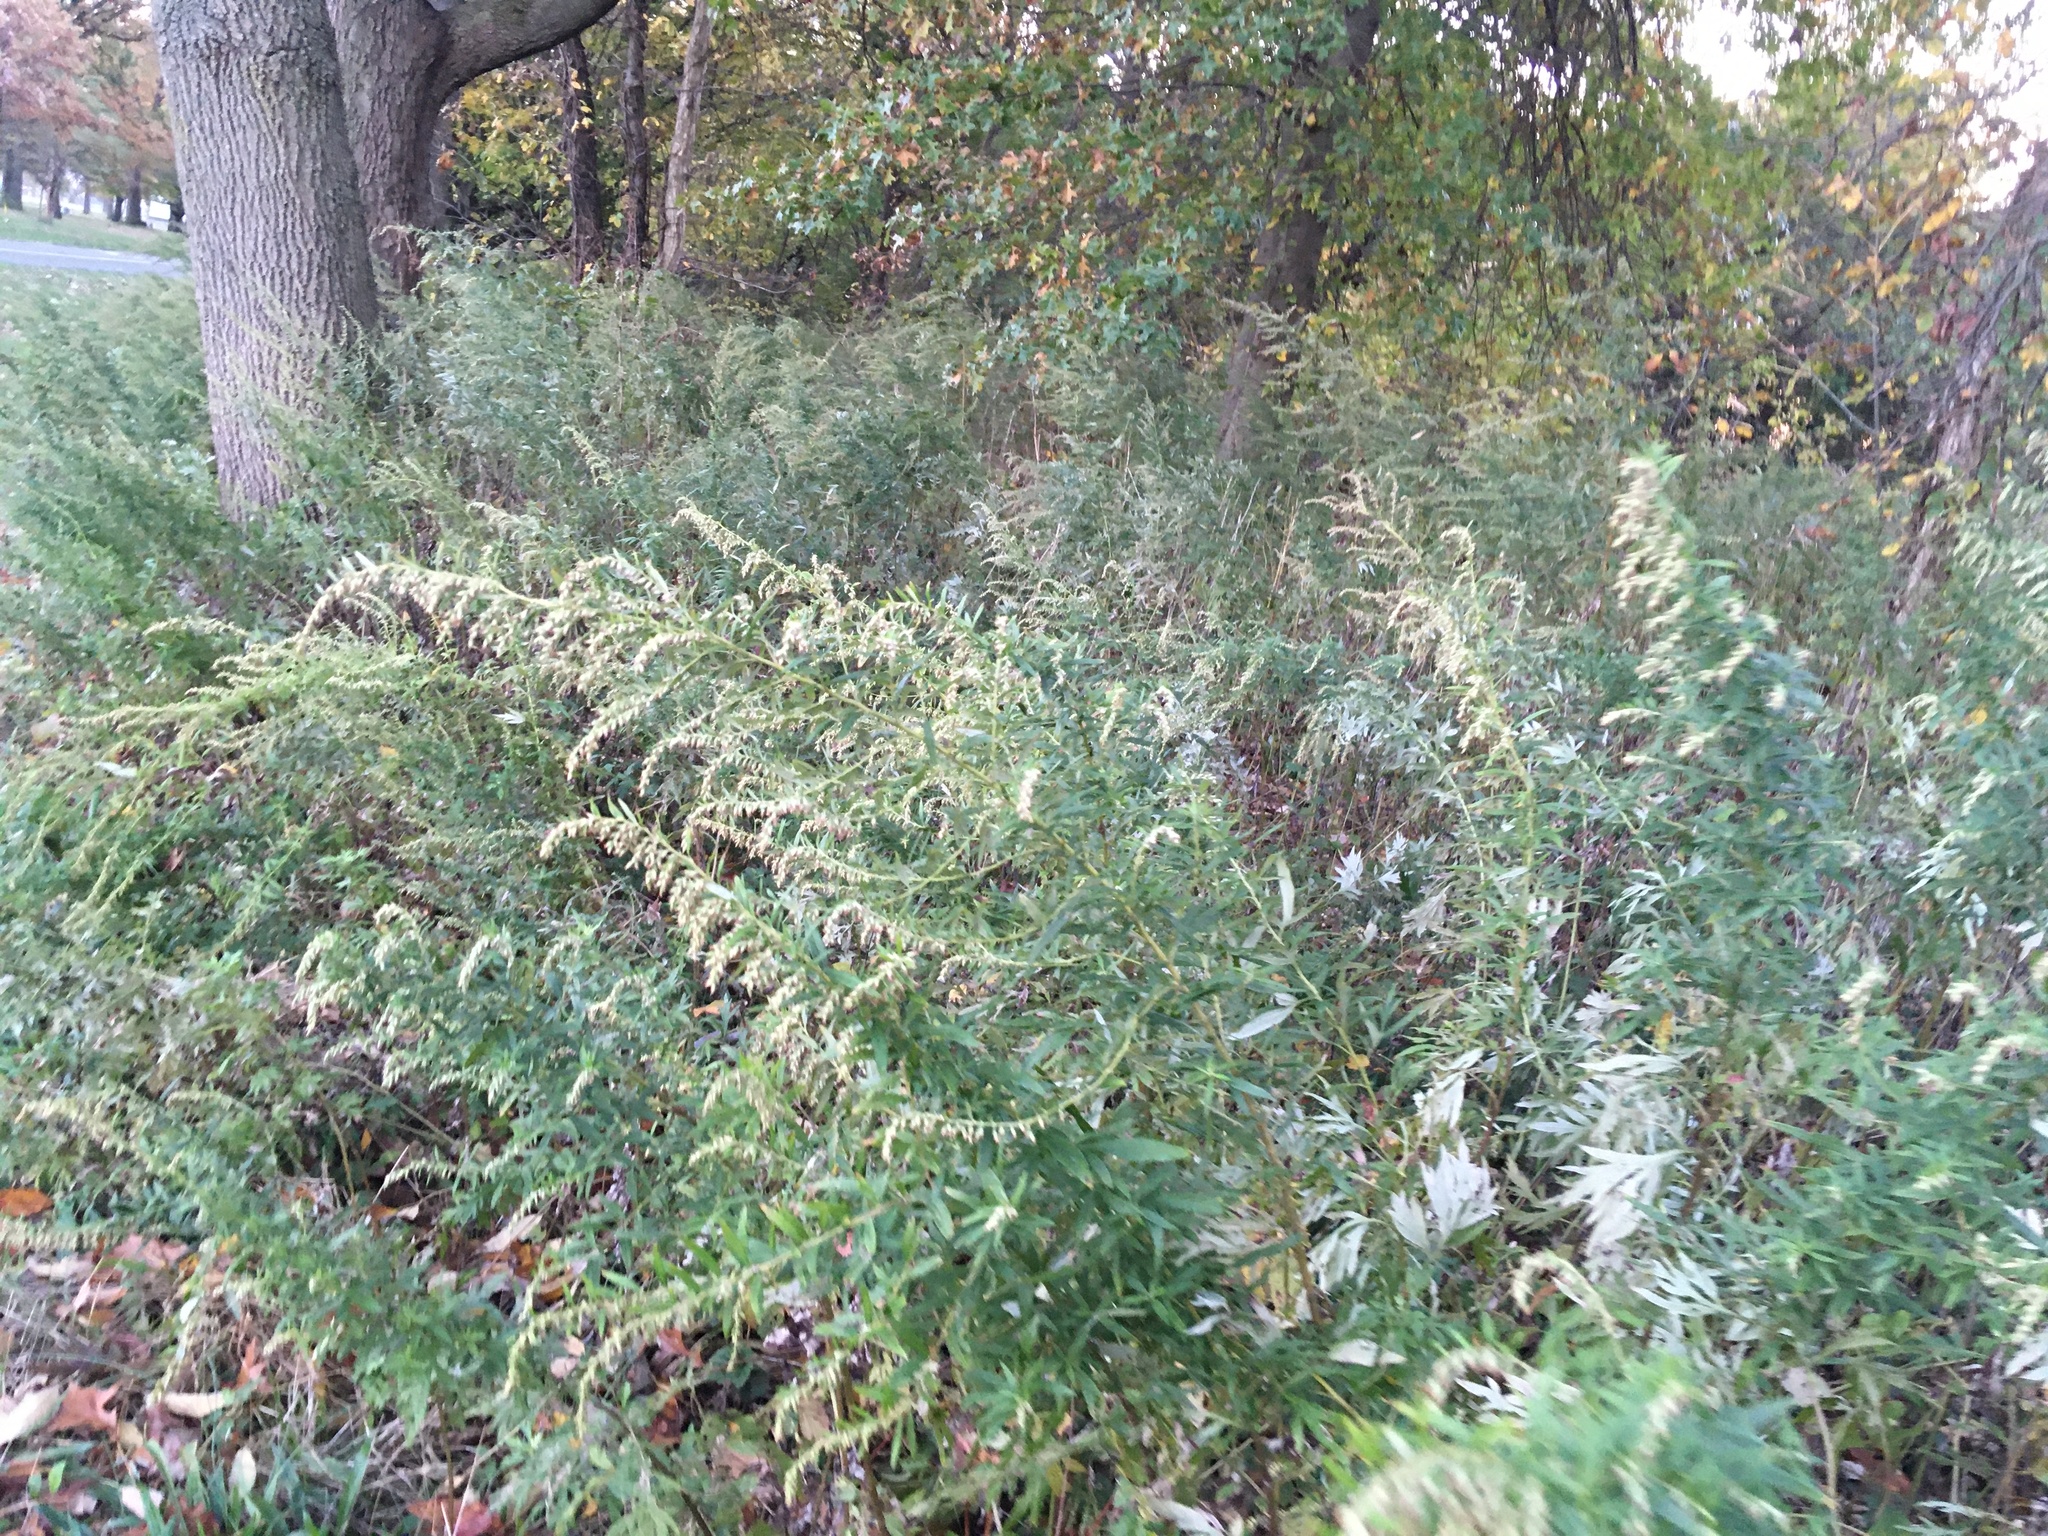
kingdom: Plantae
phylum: Tracheophyta
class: Magnoliopsida
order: Asterales
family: Asteraceae
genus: Artemisia
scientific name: Artemisia vulgaris
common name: Mugwort
